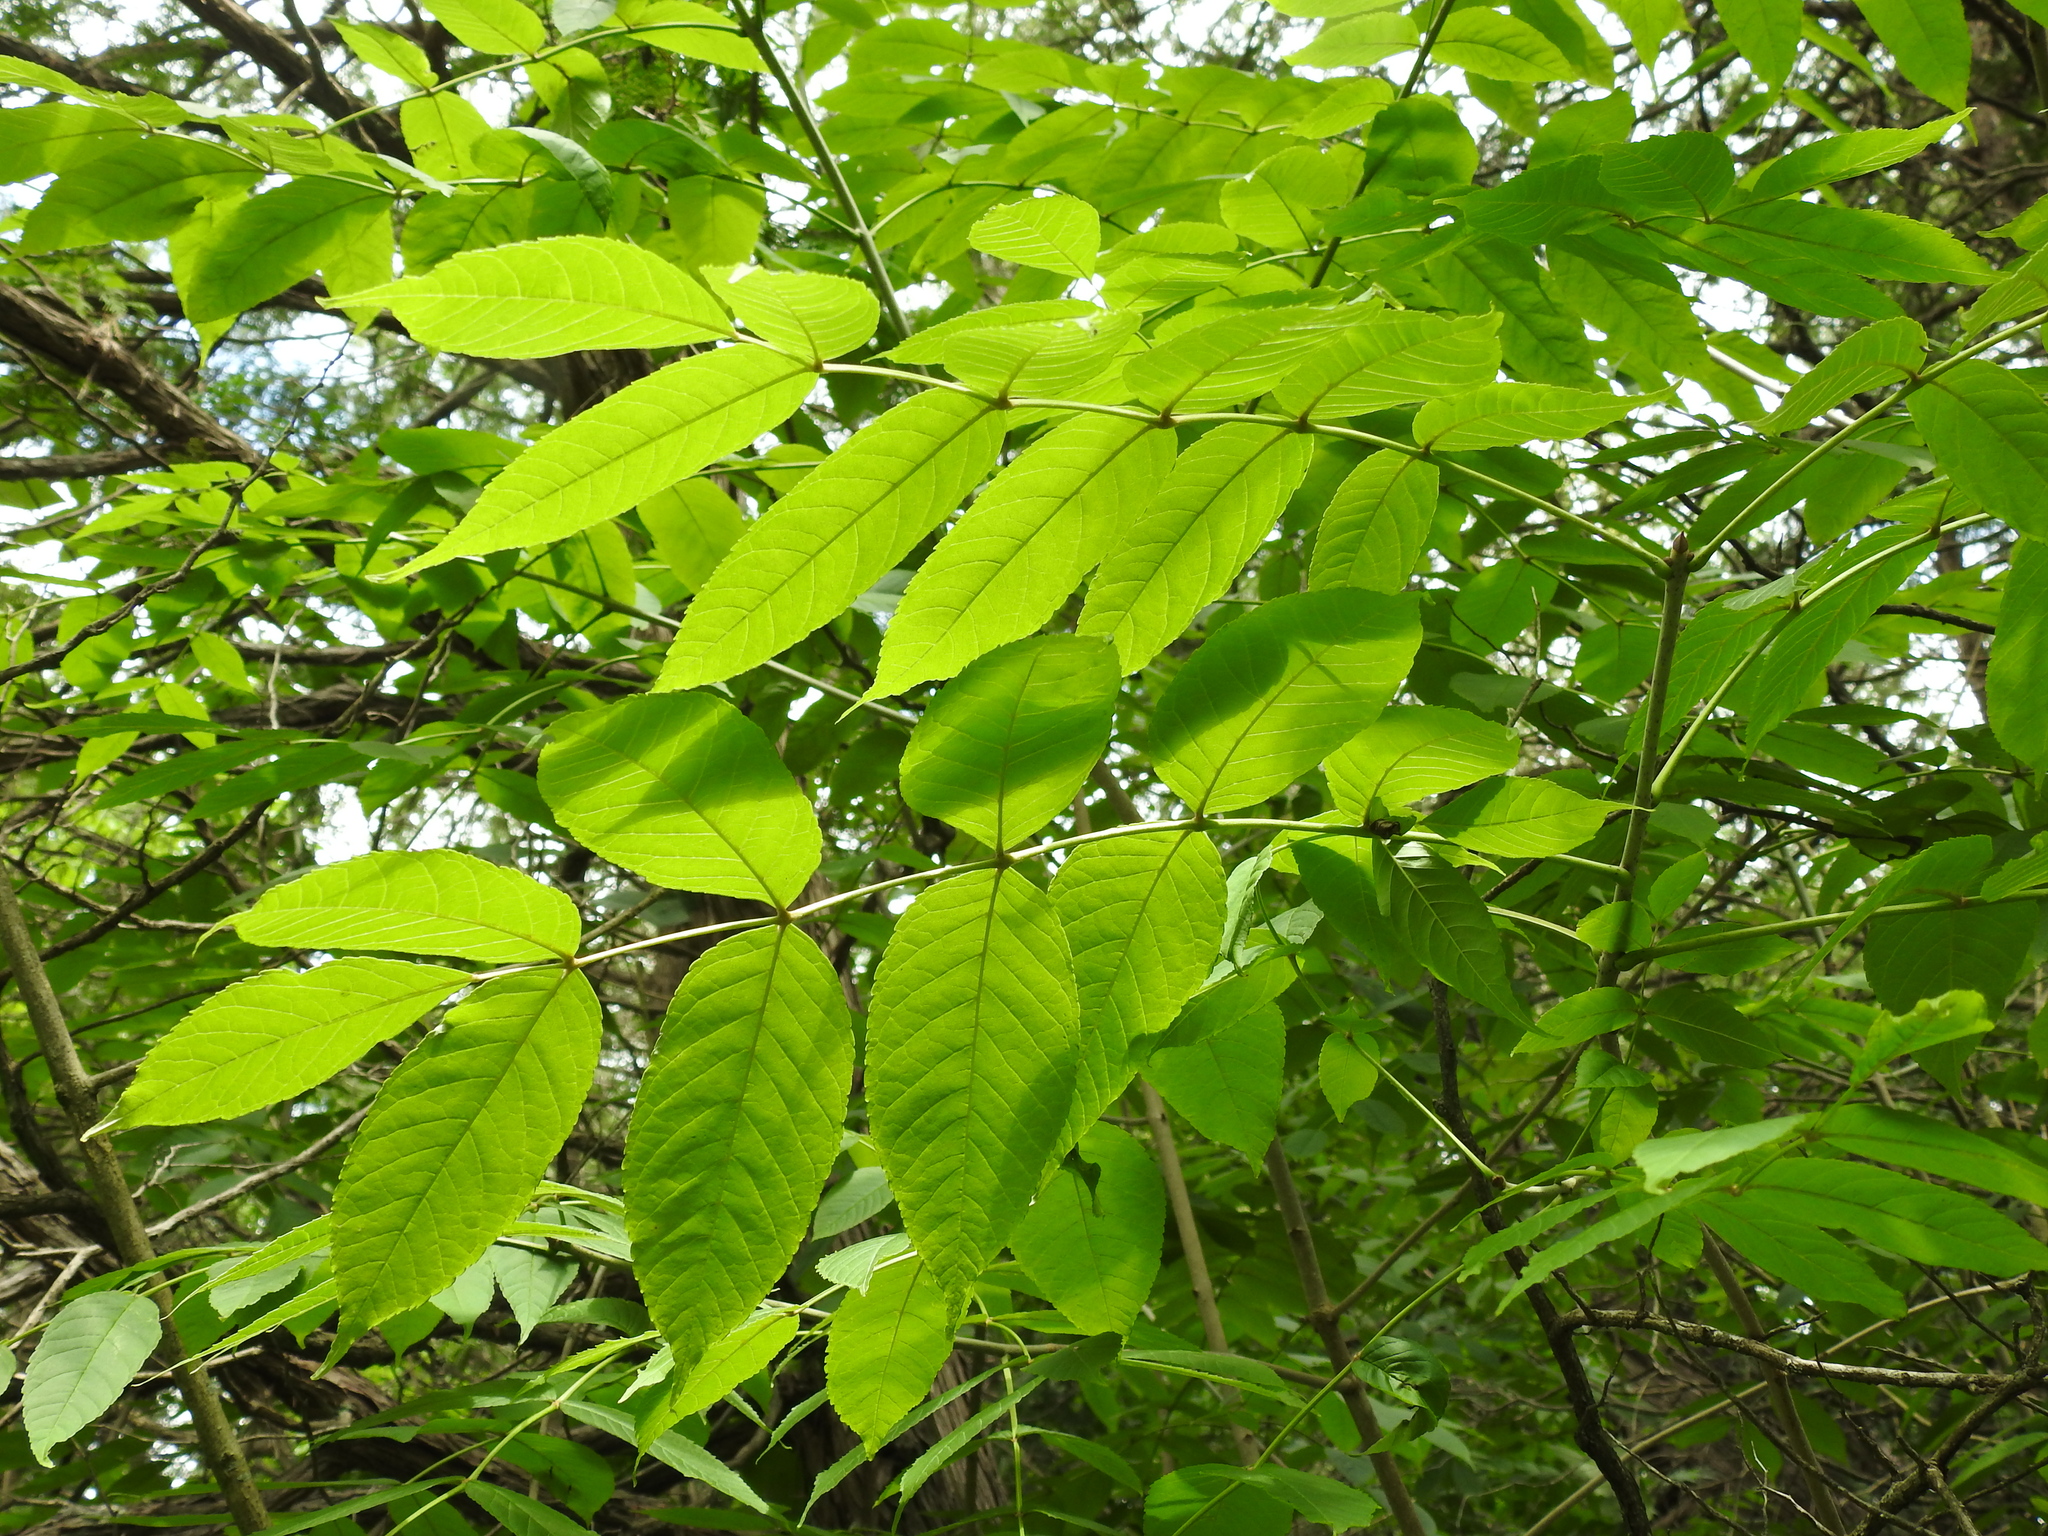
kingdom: Plantae
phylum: Tracheophyta
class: Magnoliopsida
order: Lamiales
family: Oleaceae
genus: Fraxinus
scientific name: Fraxinus nigra
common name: Black ash
